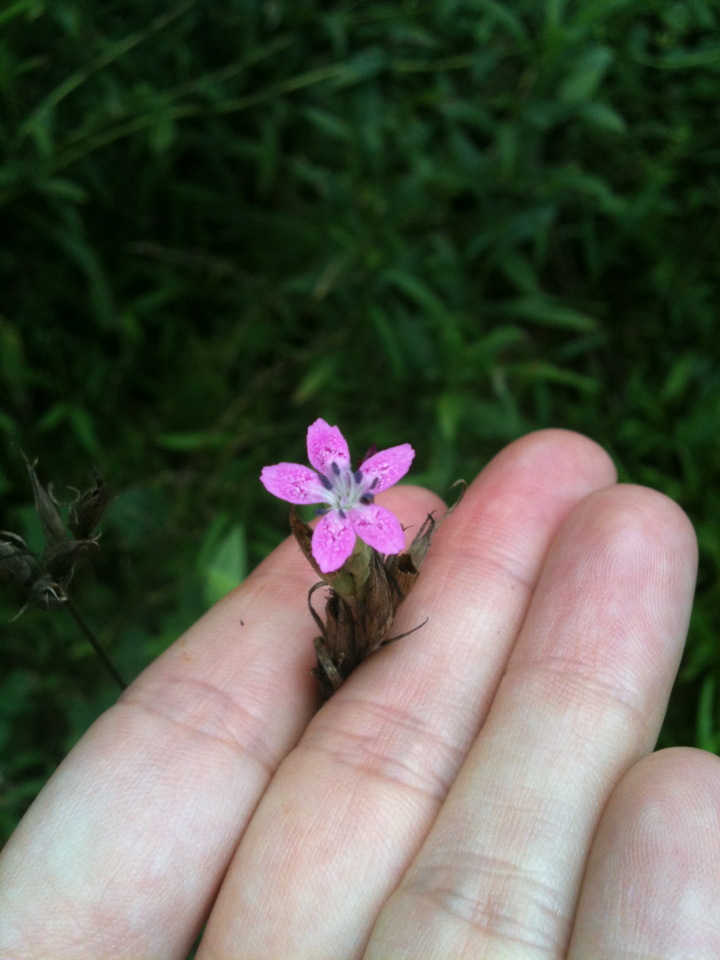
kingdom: Plantae
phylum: Tracheophyta
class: Magnoliopsida
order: Caryophyllales
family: Caryophyllaceae
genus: Dianthus
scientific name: Dianthus armeria
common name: Deptford pink
